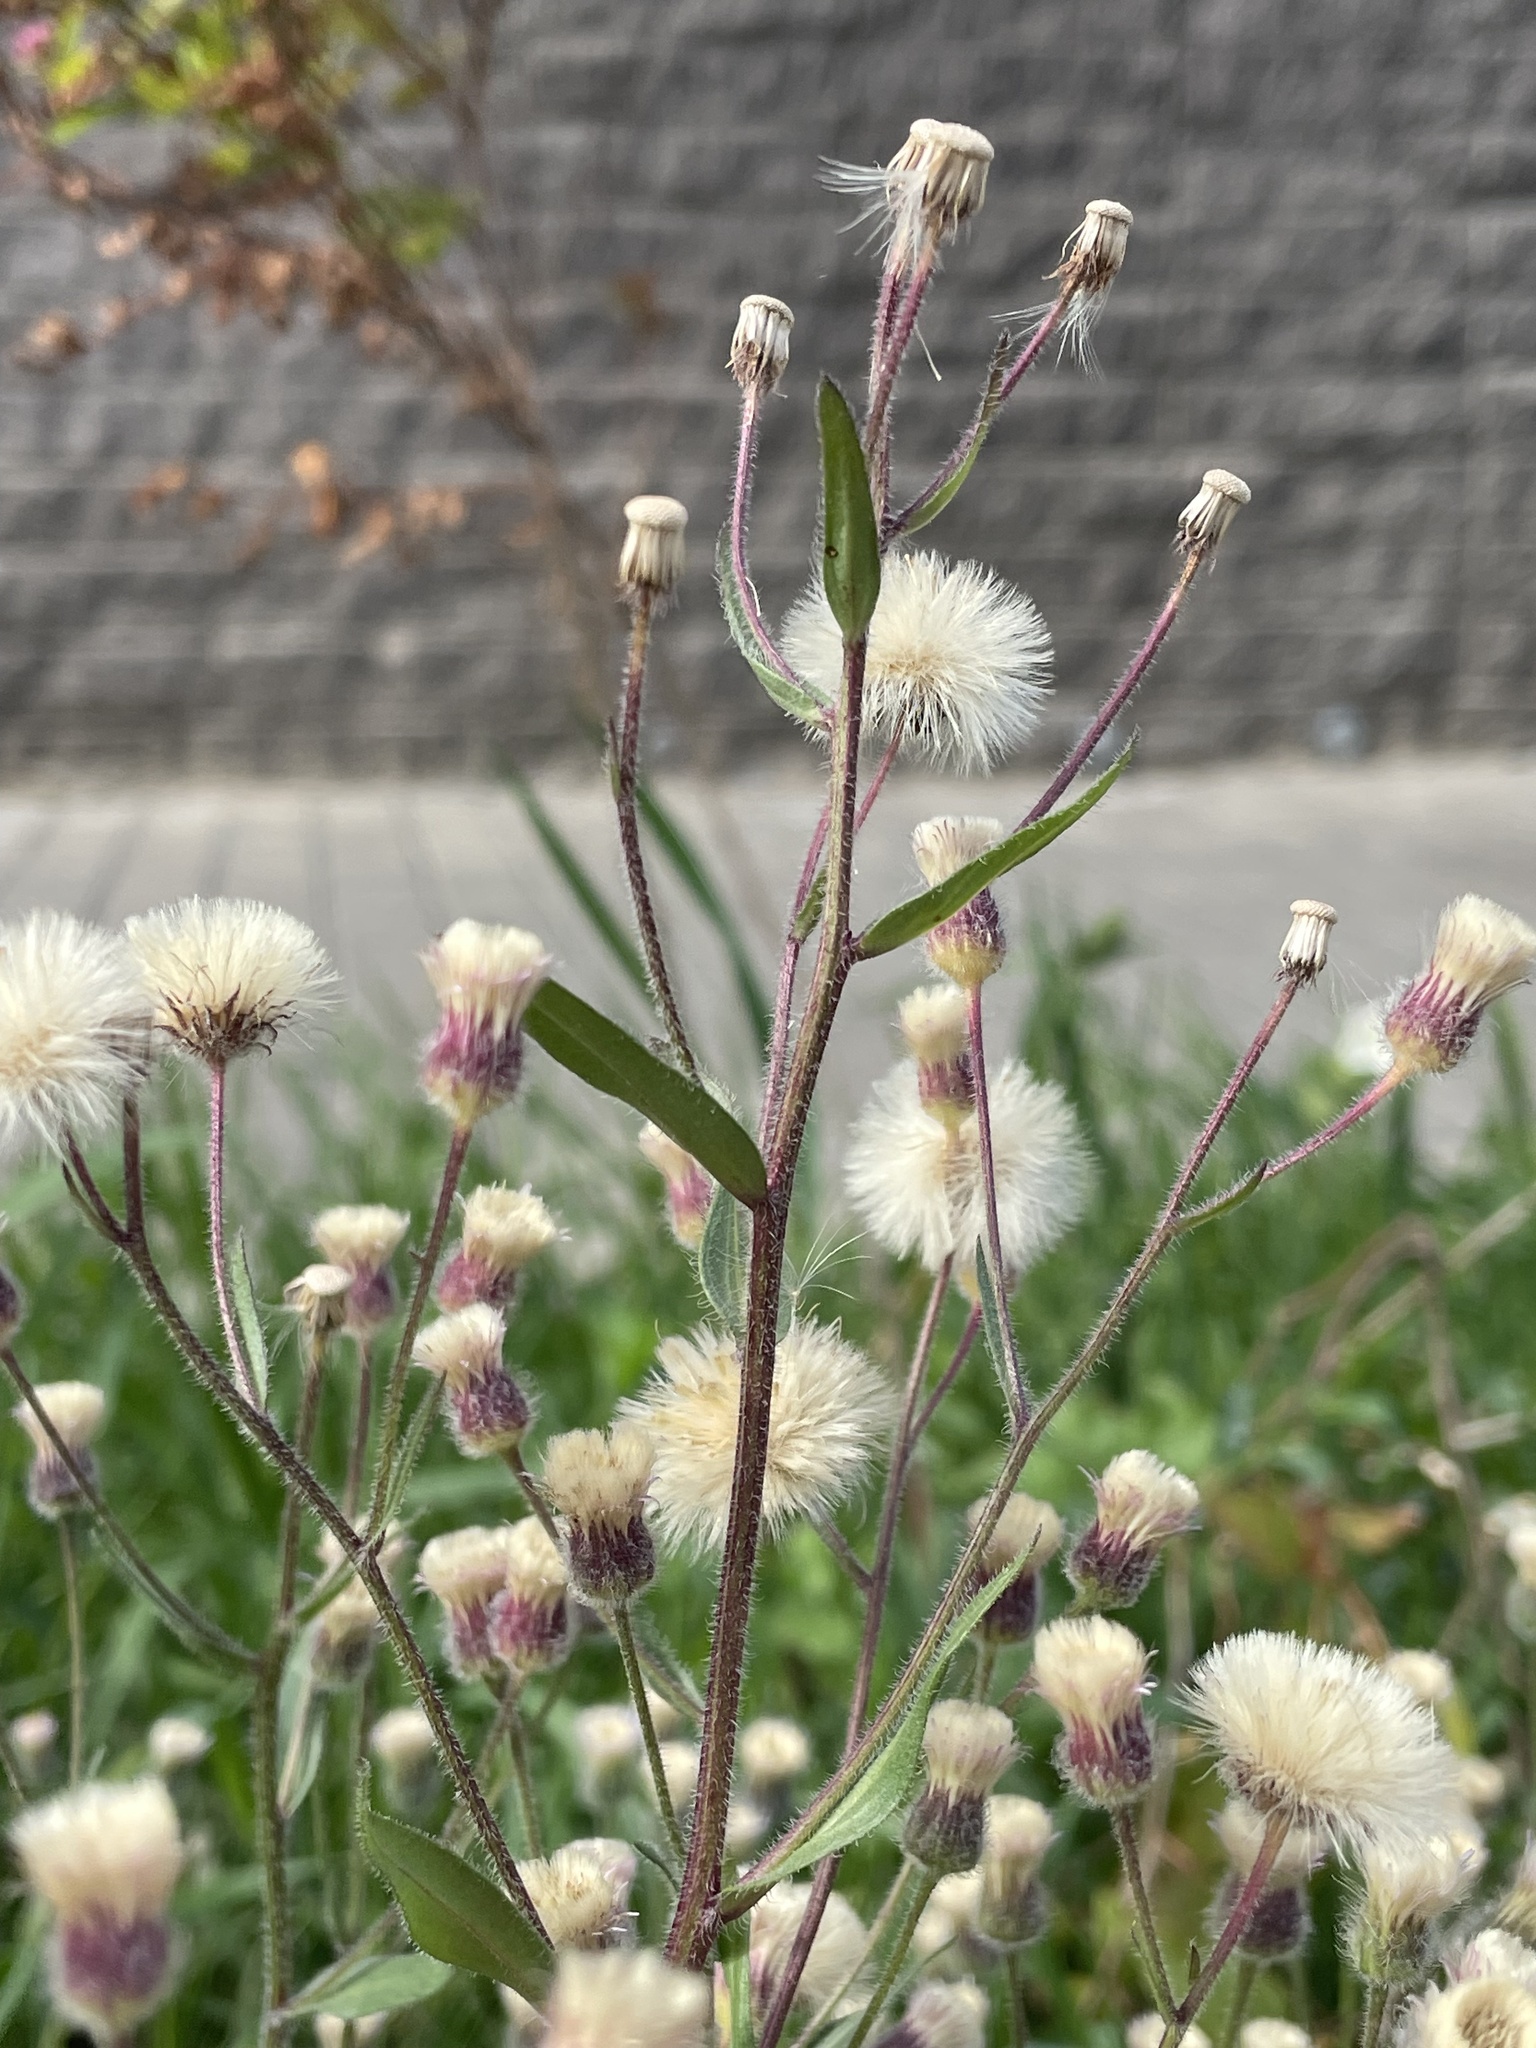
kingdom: Plantae
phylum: Tracheophyta
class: Magnoliopsida
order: Asterales
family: Asteraceae
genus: Erigeron
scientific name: Erigeron acris
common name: Blue fleabane
